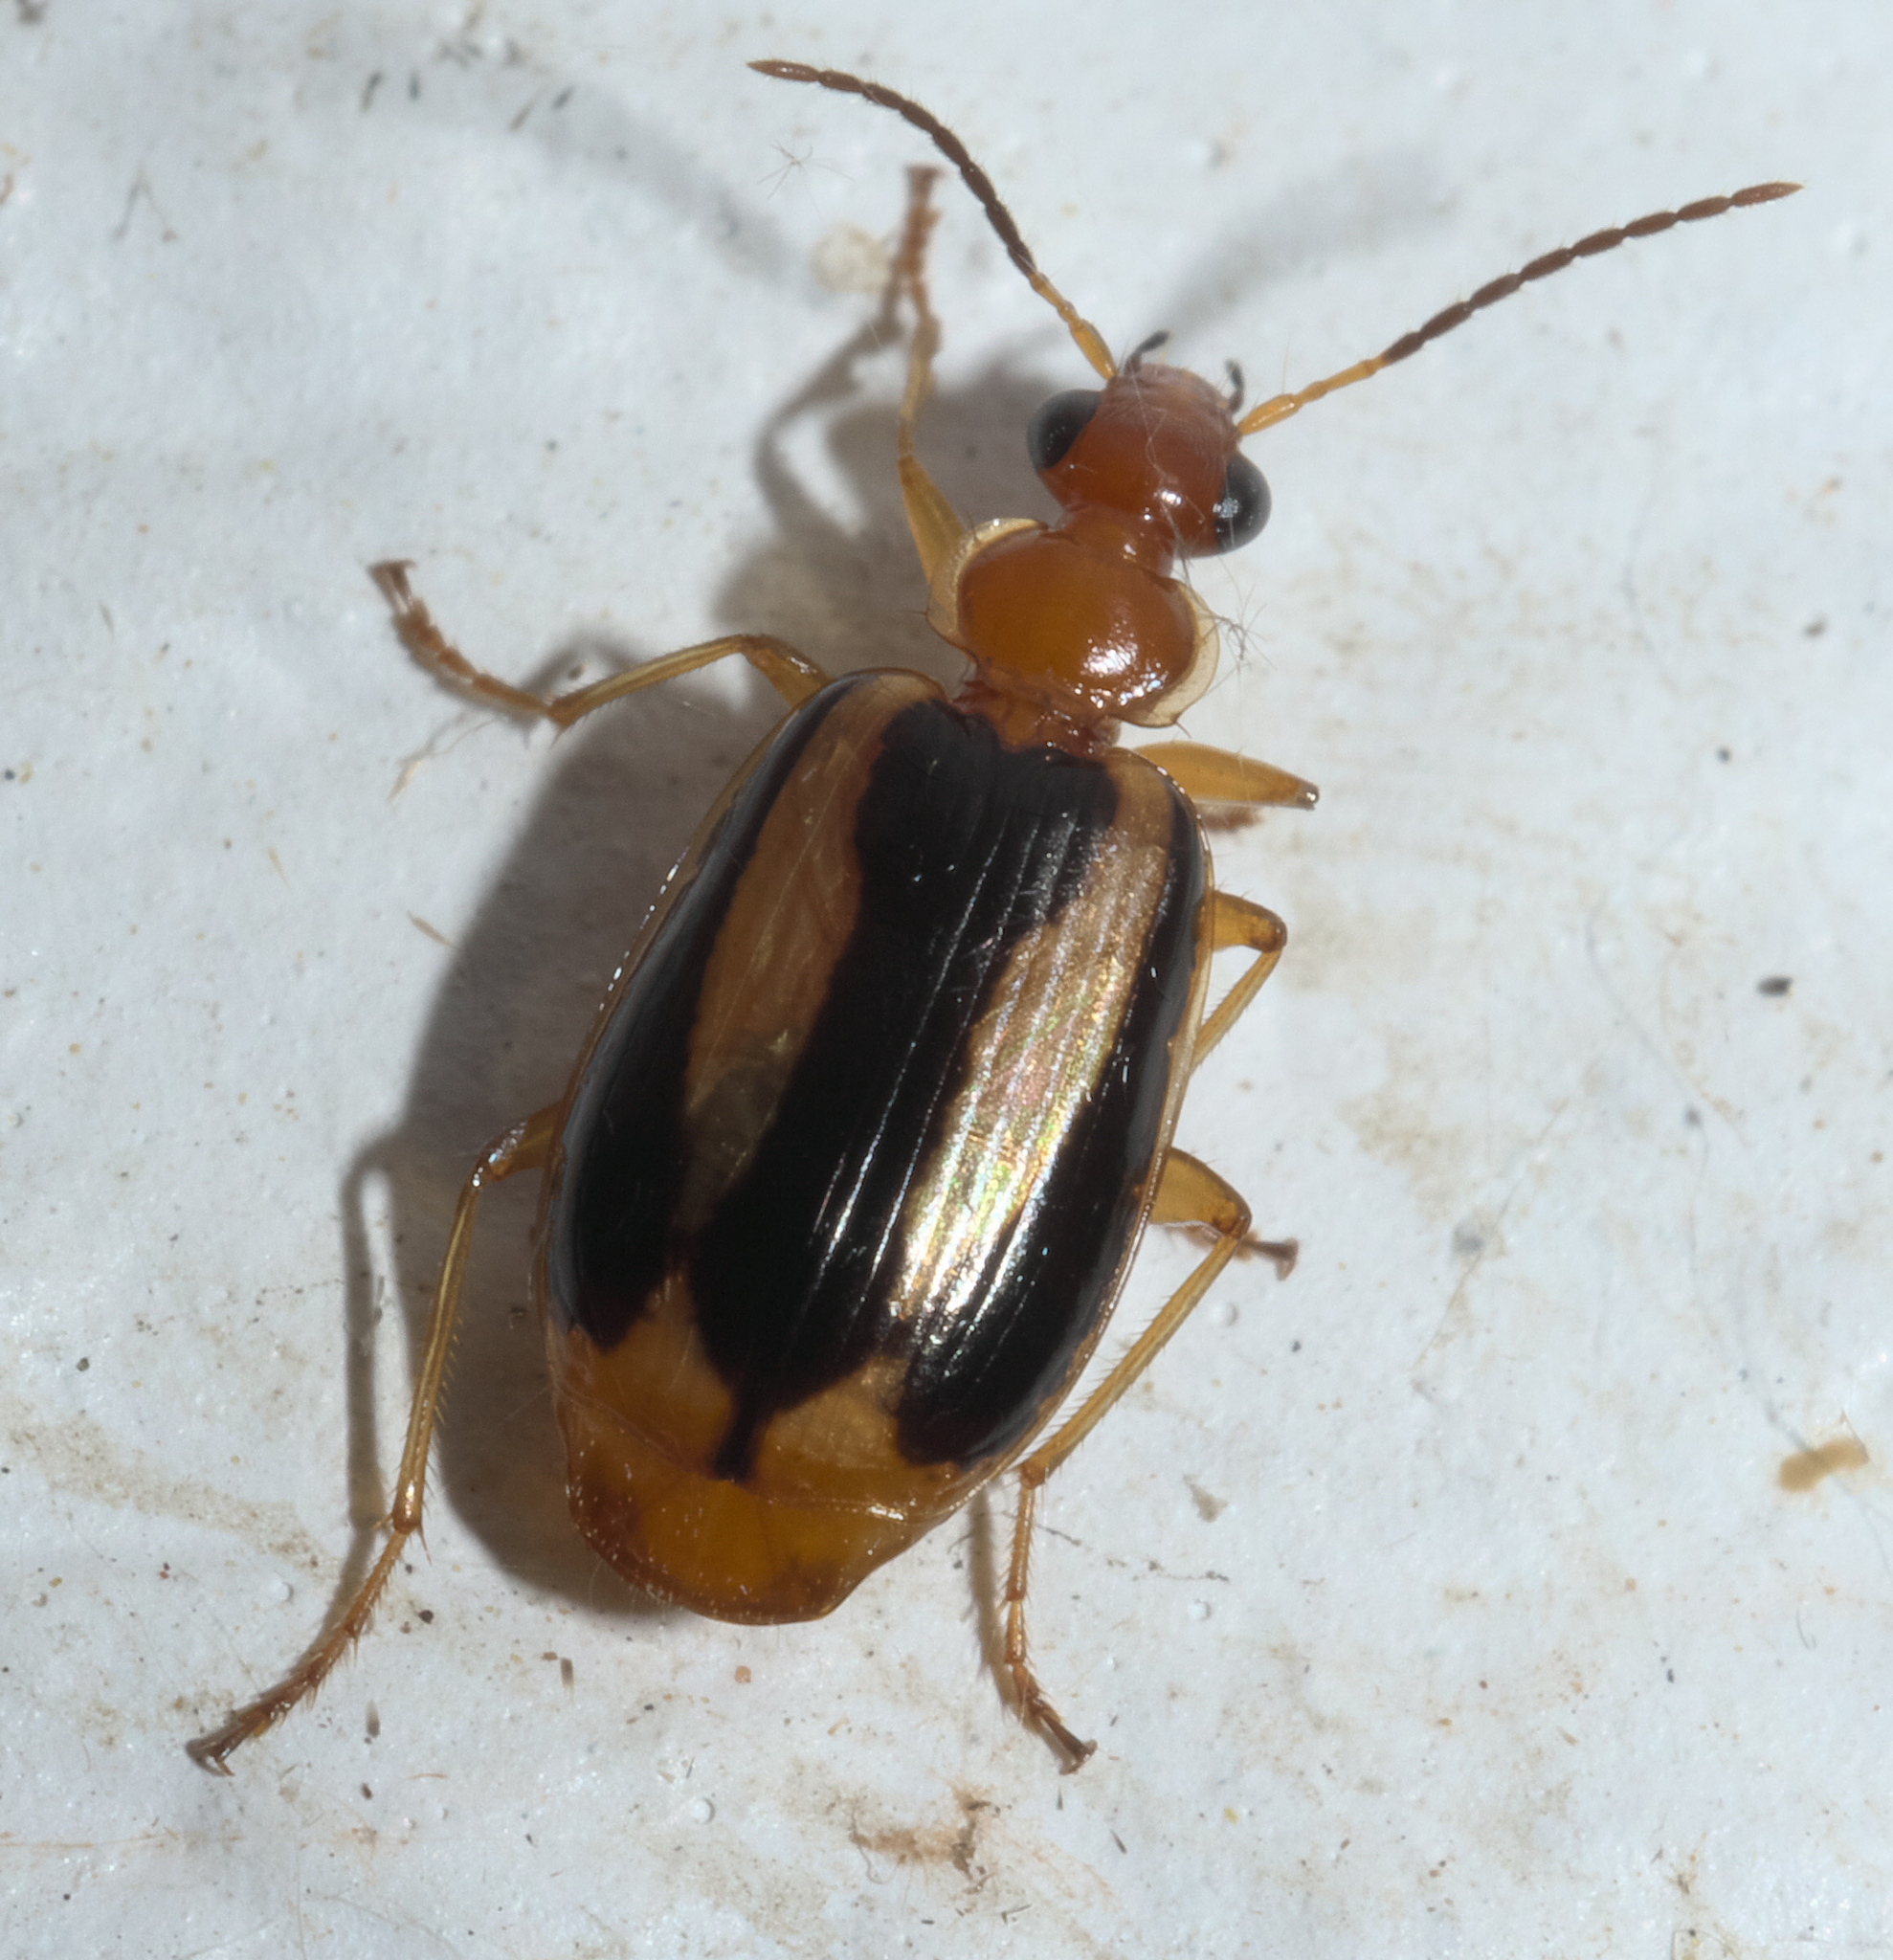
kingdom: Animalia
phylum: Arthropoda
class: Insecta
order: Coleoptera
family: Carabidae
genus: Lebia
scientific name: Lebia solea
